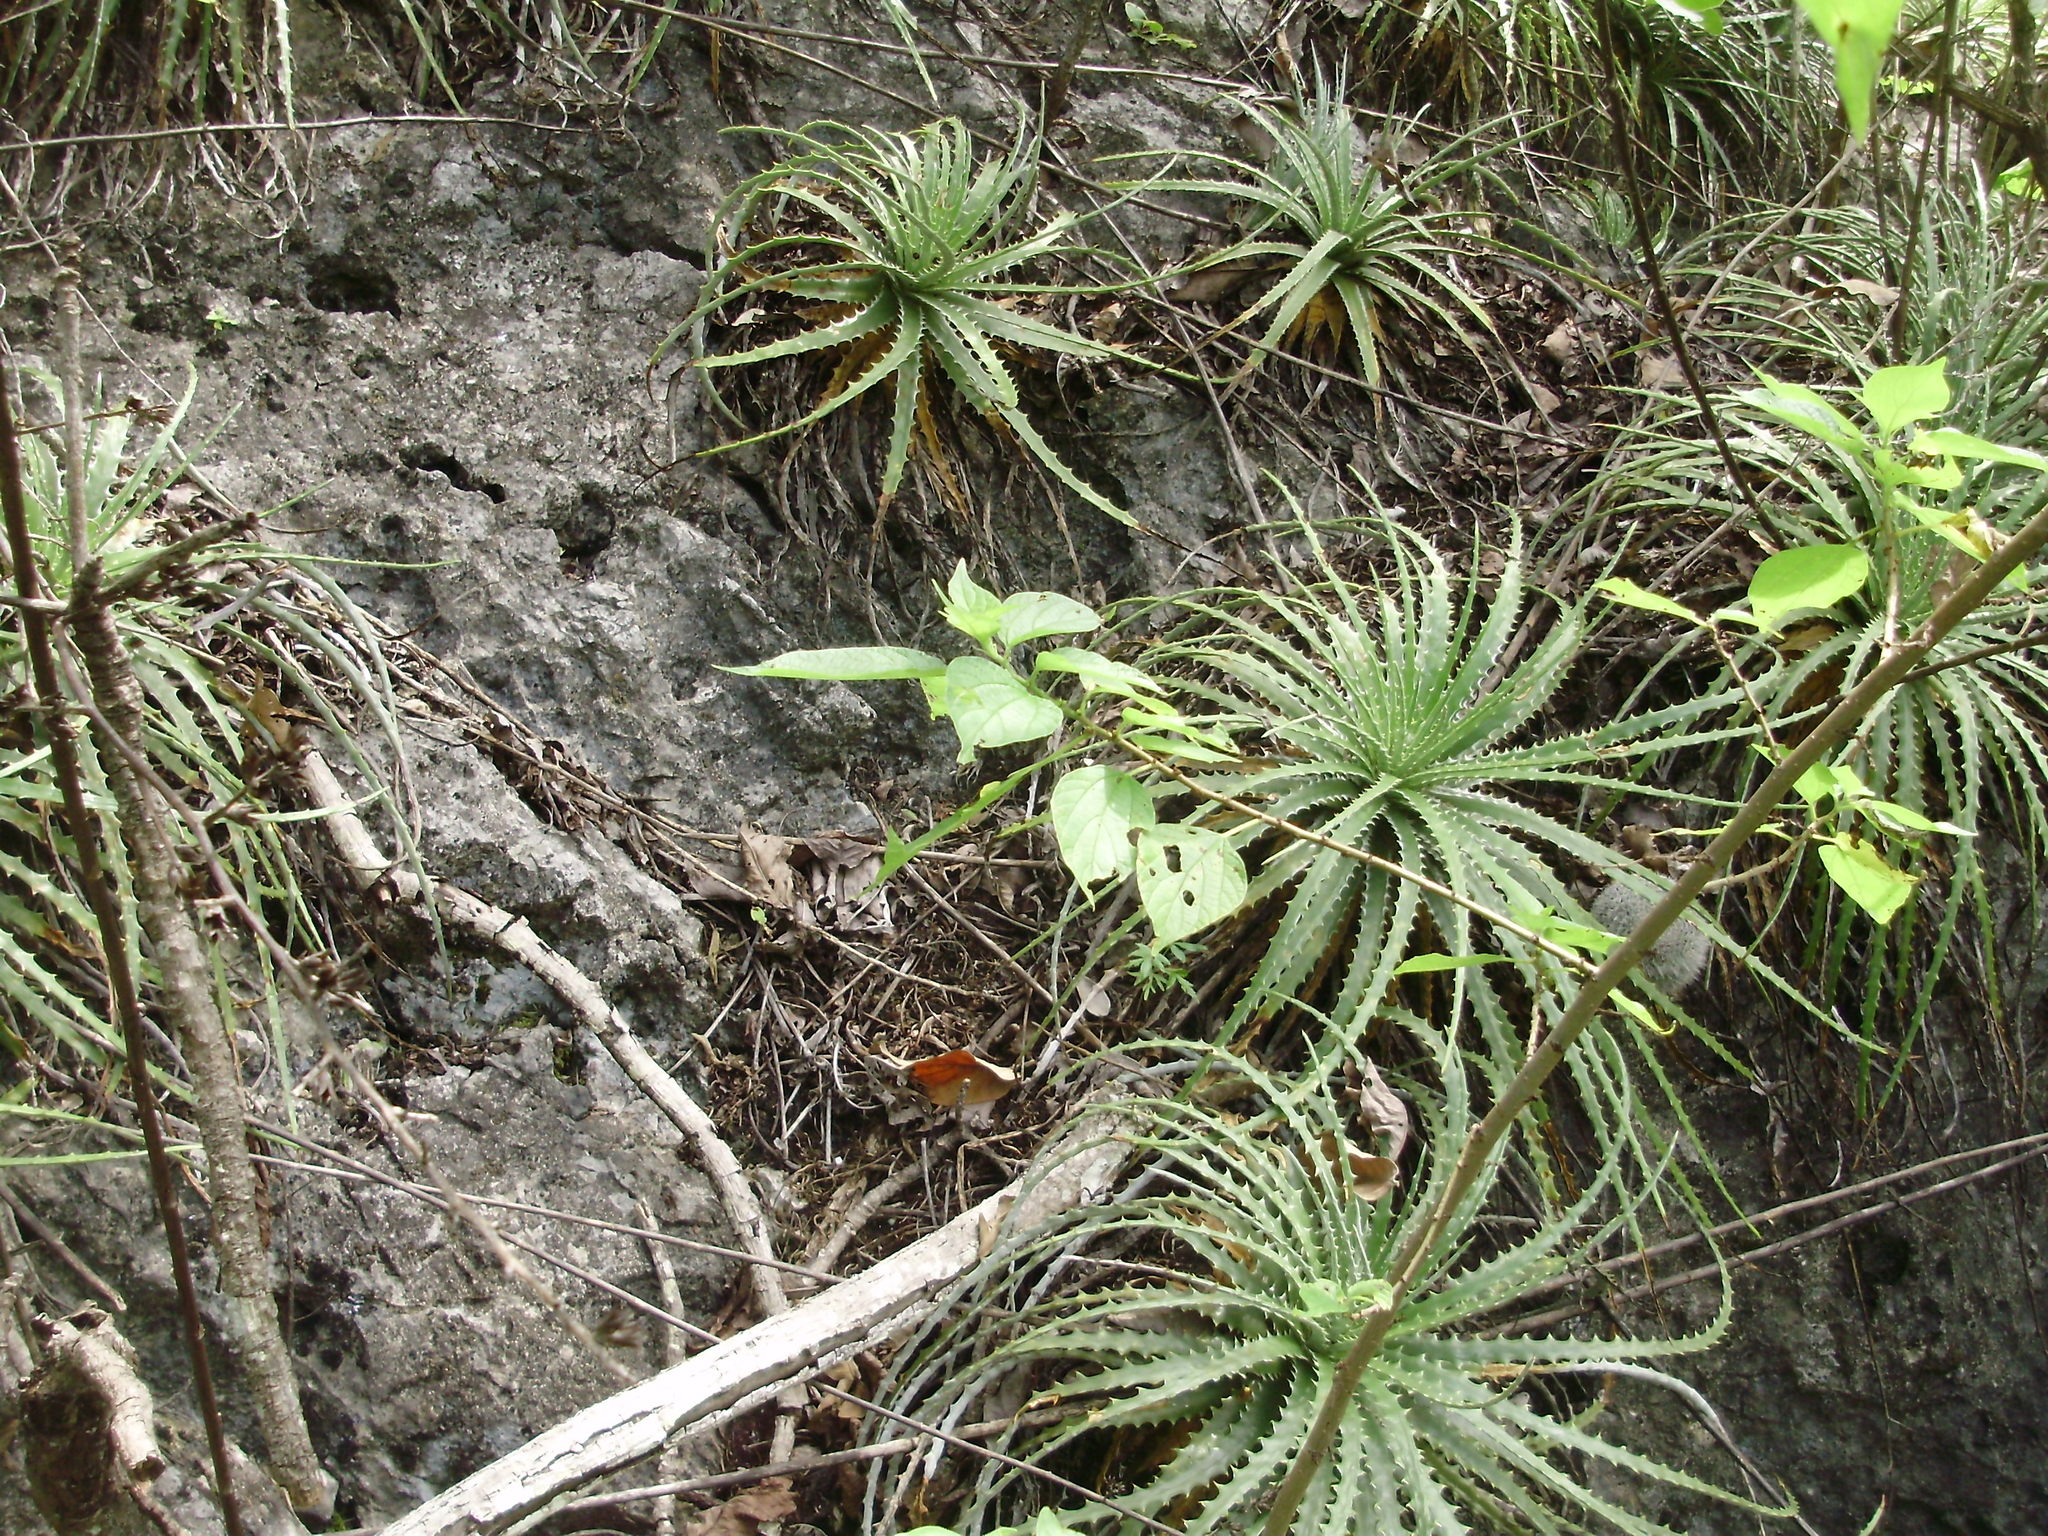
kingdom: Plantae
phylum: Tracheophyta
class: Liliopsida
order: Poales
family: Bromeliaceae
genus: Hechtia
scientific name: Hechtia glomerata
